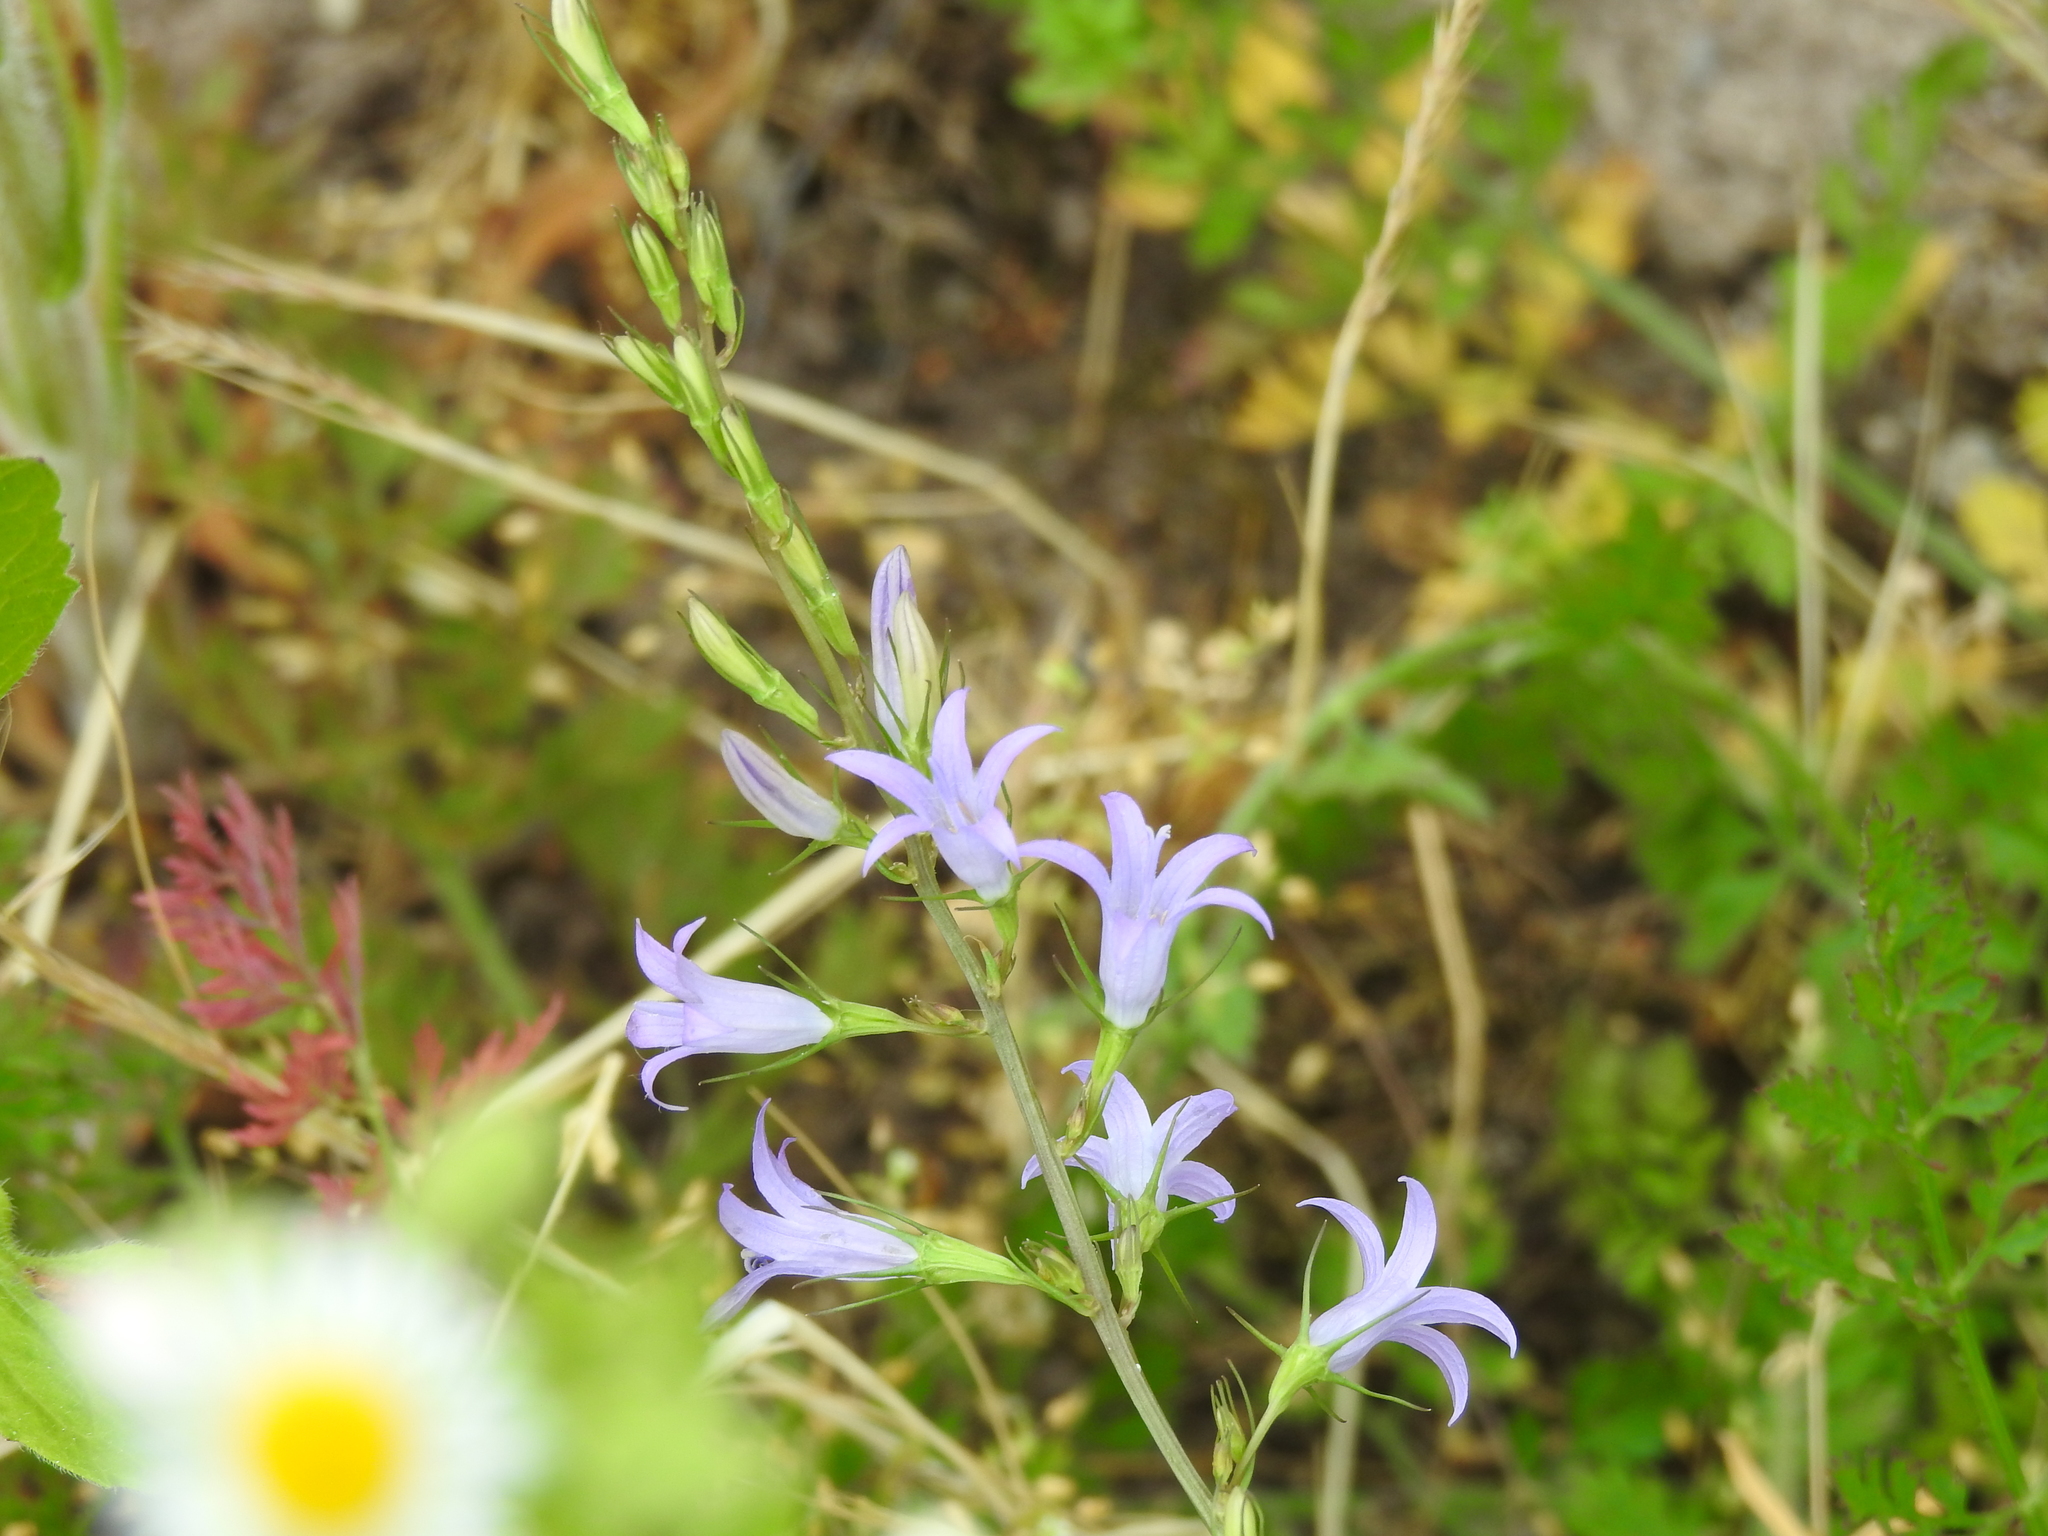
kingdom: Plantae
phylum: Tracheophyta
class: Magnoliopsida
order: Asterales
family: Campanulaceae
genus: Campanula
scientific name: Campanula rapunculus
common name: Rampion bellflower
